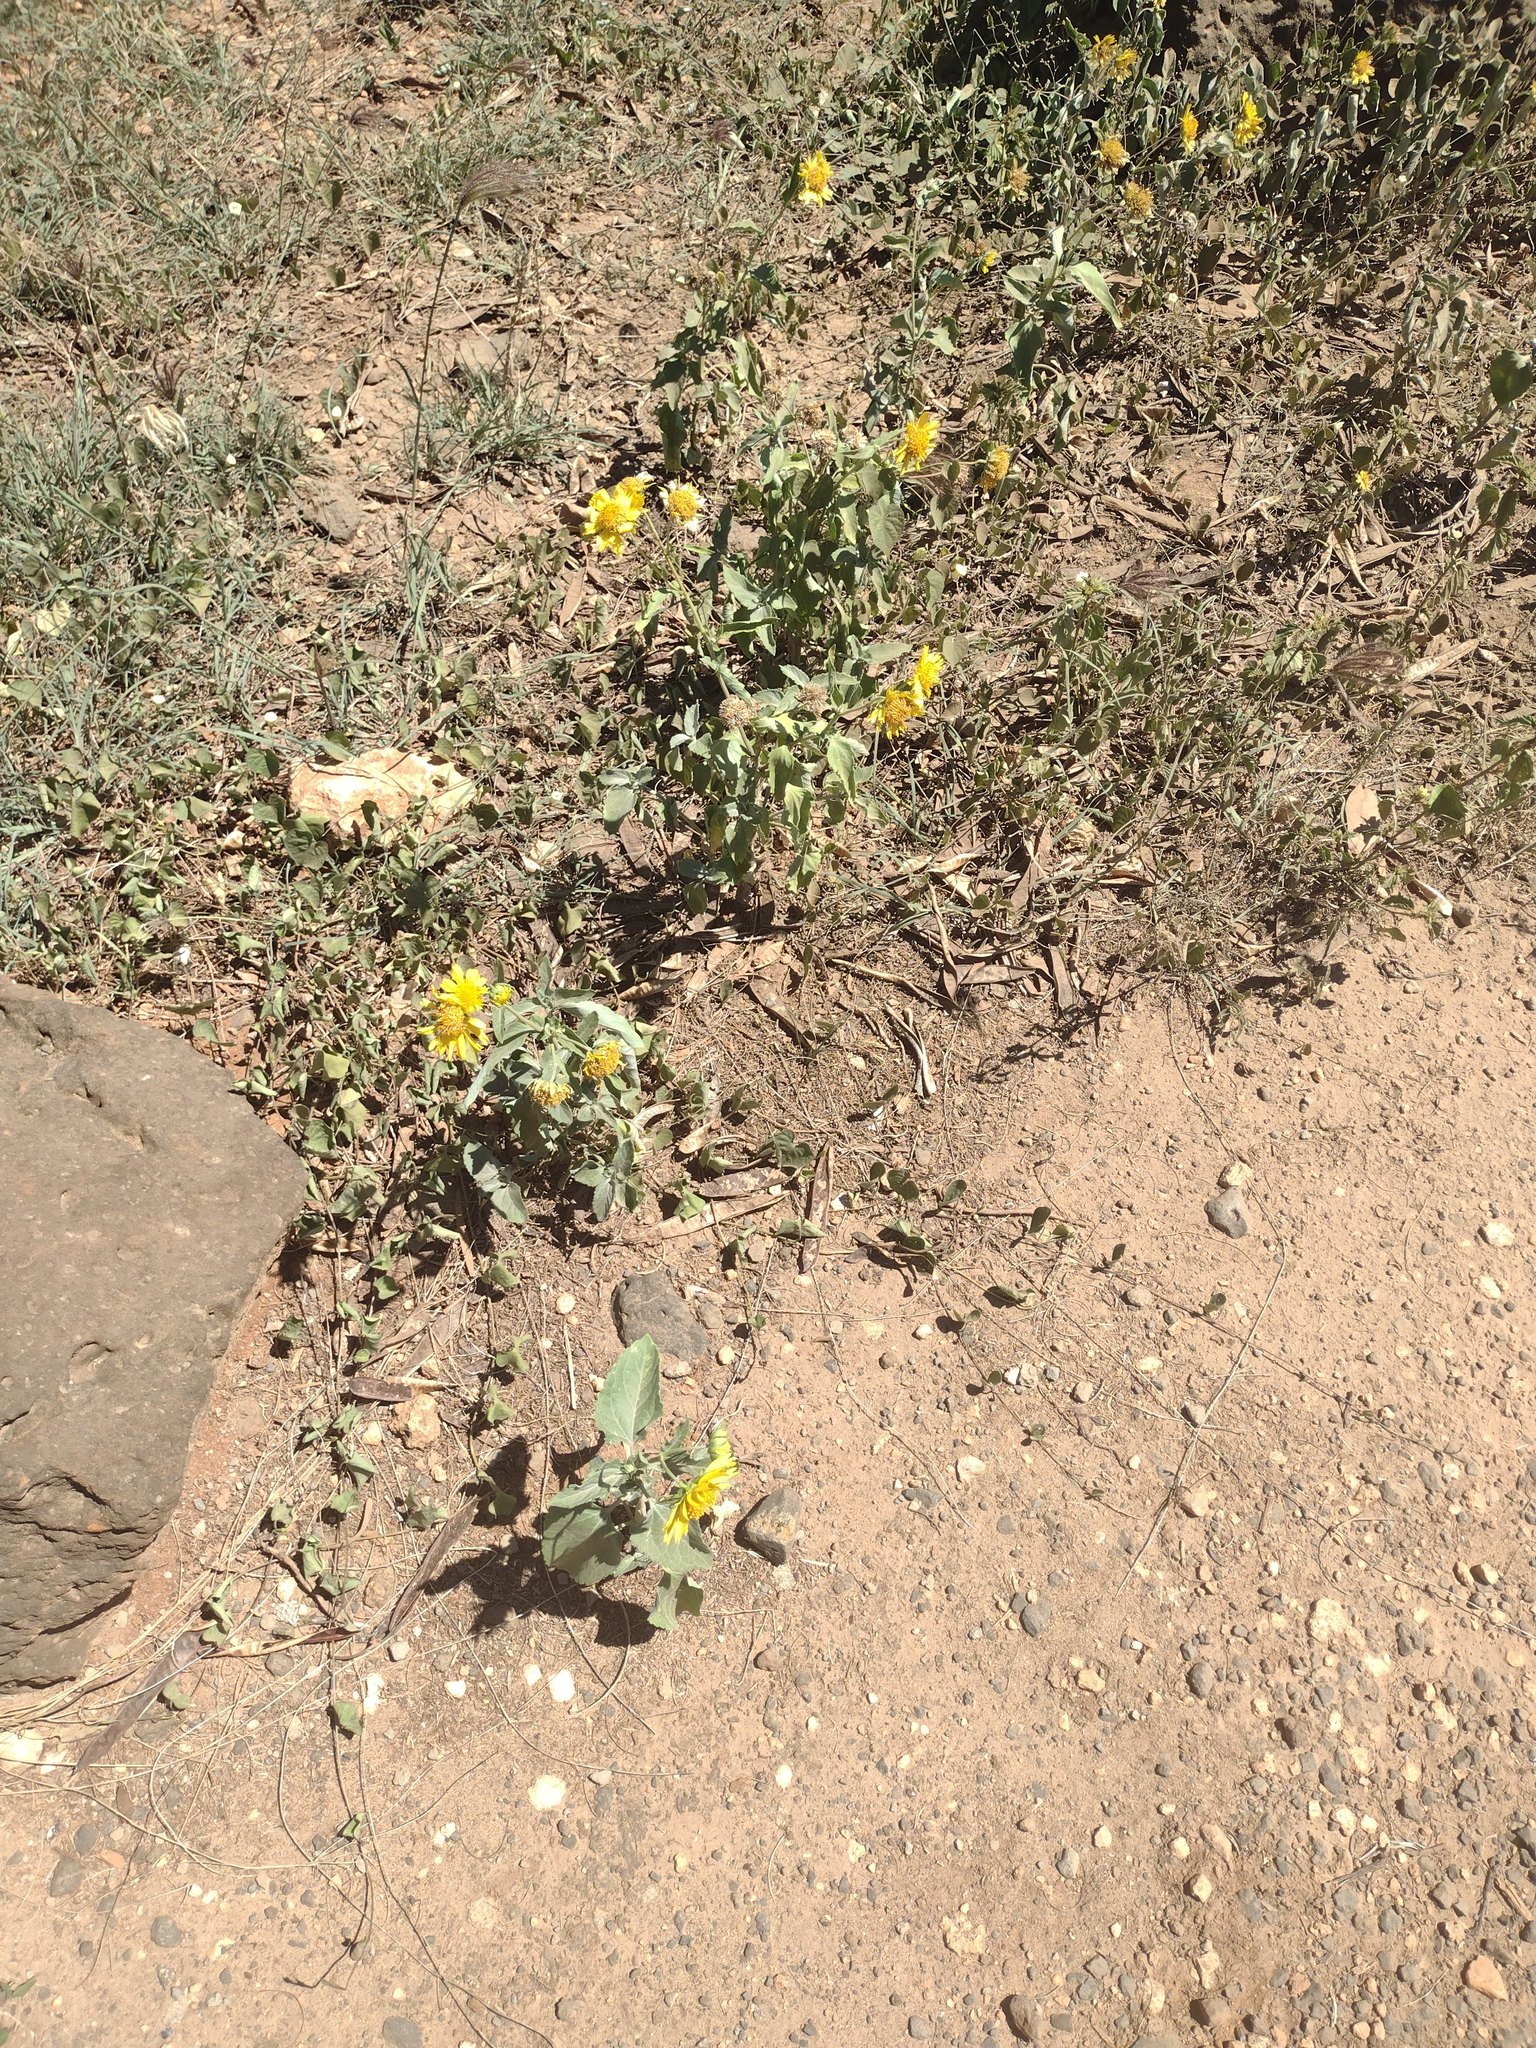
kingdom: Plantae
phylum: Tracheophyta
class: Magnoliopsida
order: Asterales
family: Asteraceae
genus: Verbesina
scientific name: Verbesina encelioides
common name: Golden crownbeard
